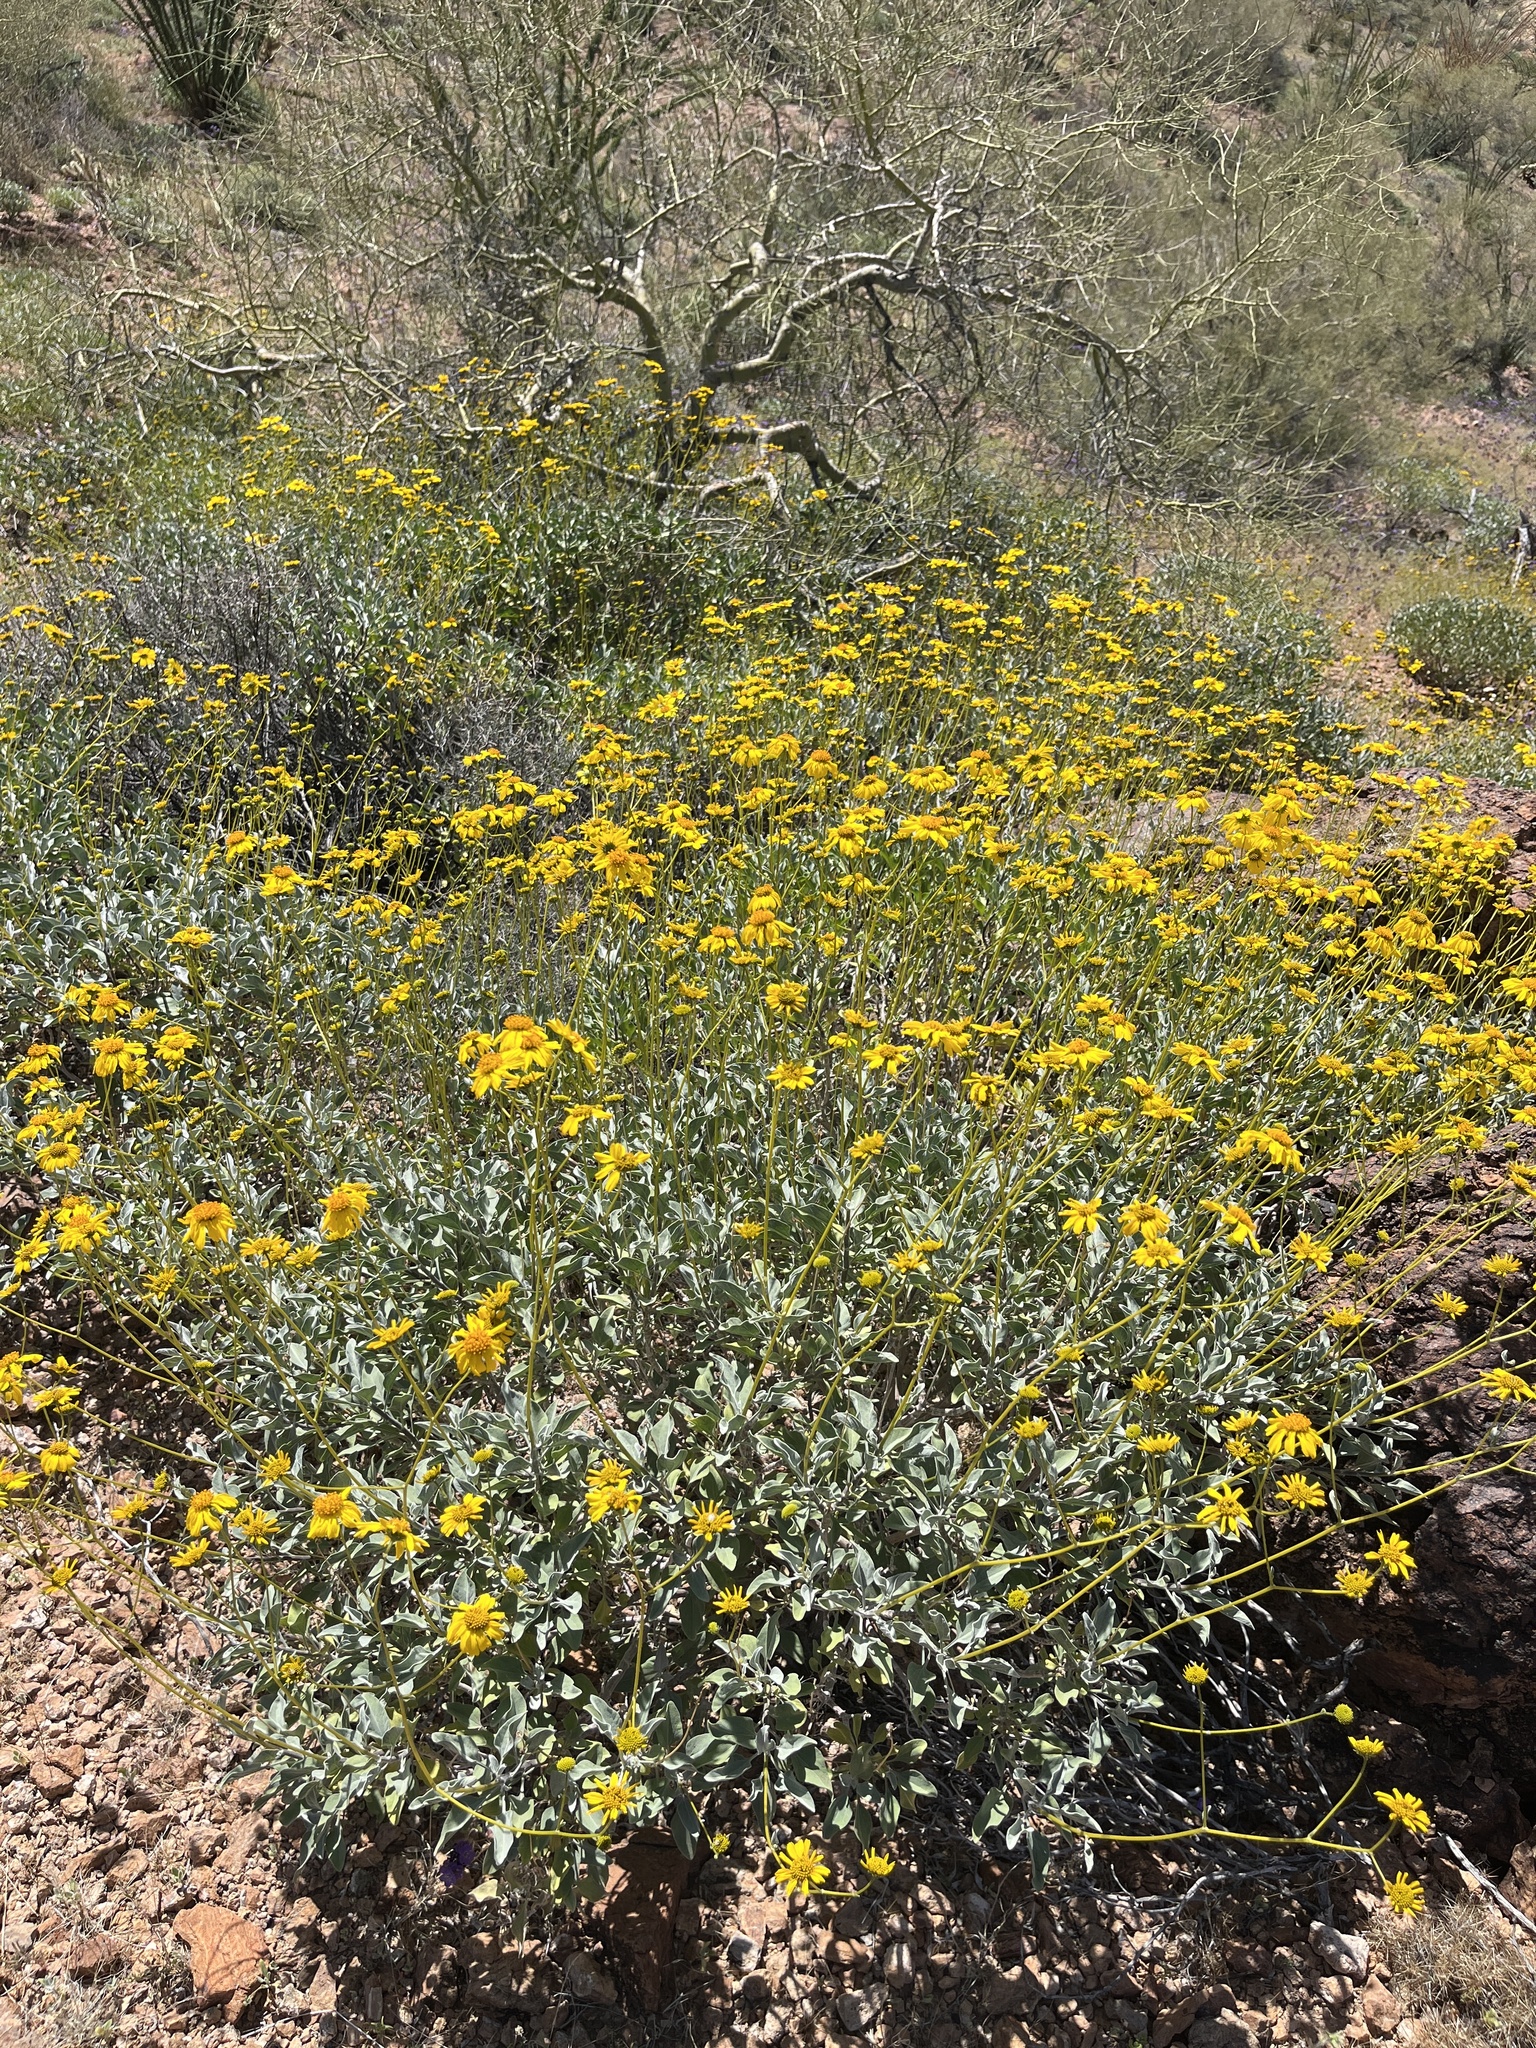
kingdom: Plantae
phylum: Tracheophyta
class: Magnoliopsida
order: Asterales
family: Asteraceae
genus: Encelia
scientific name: Encelia farinosa
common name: Brittlebush
